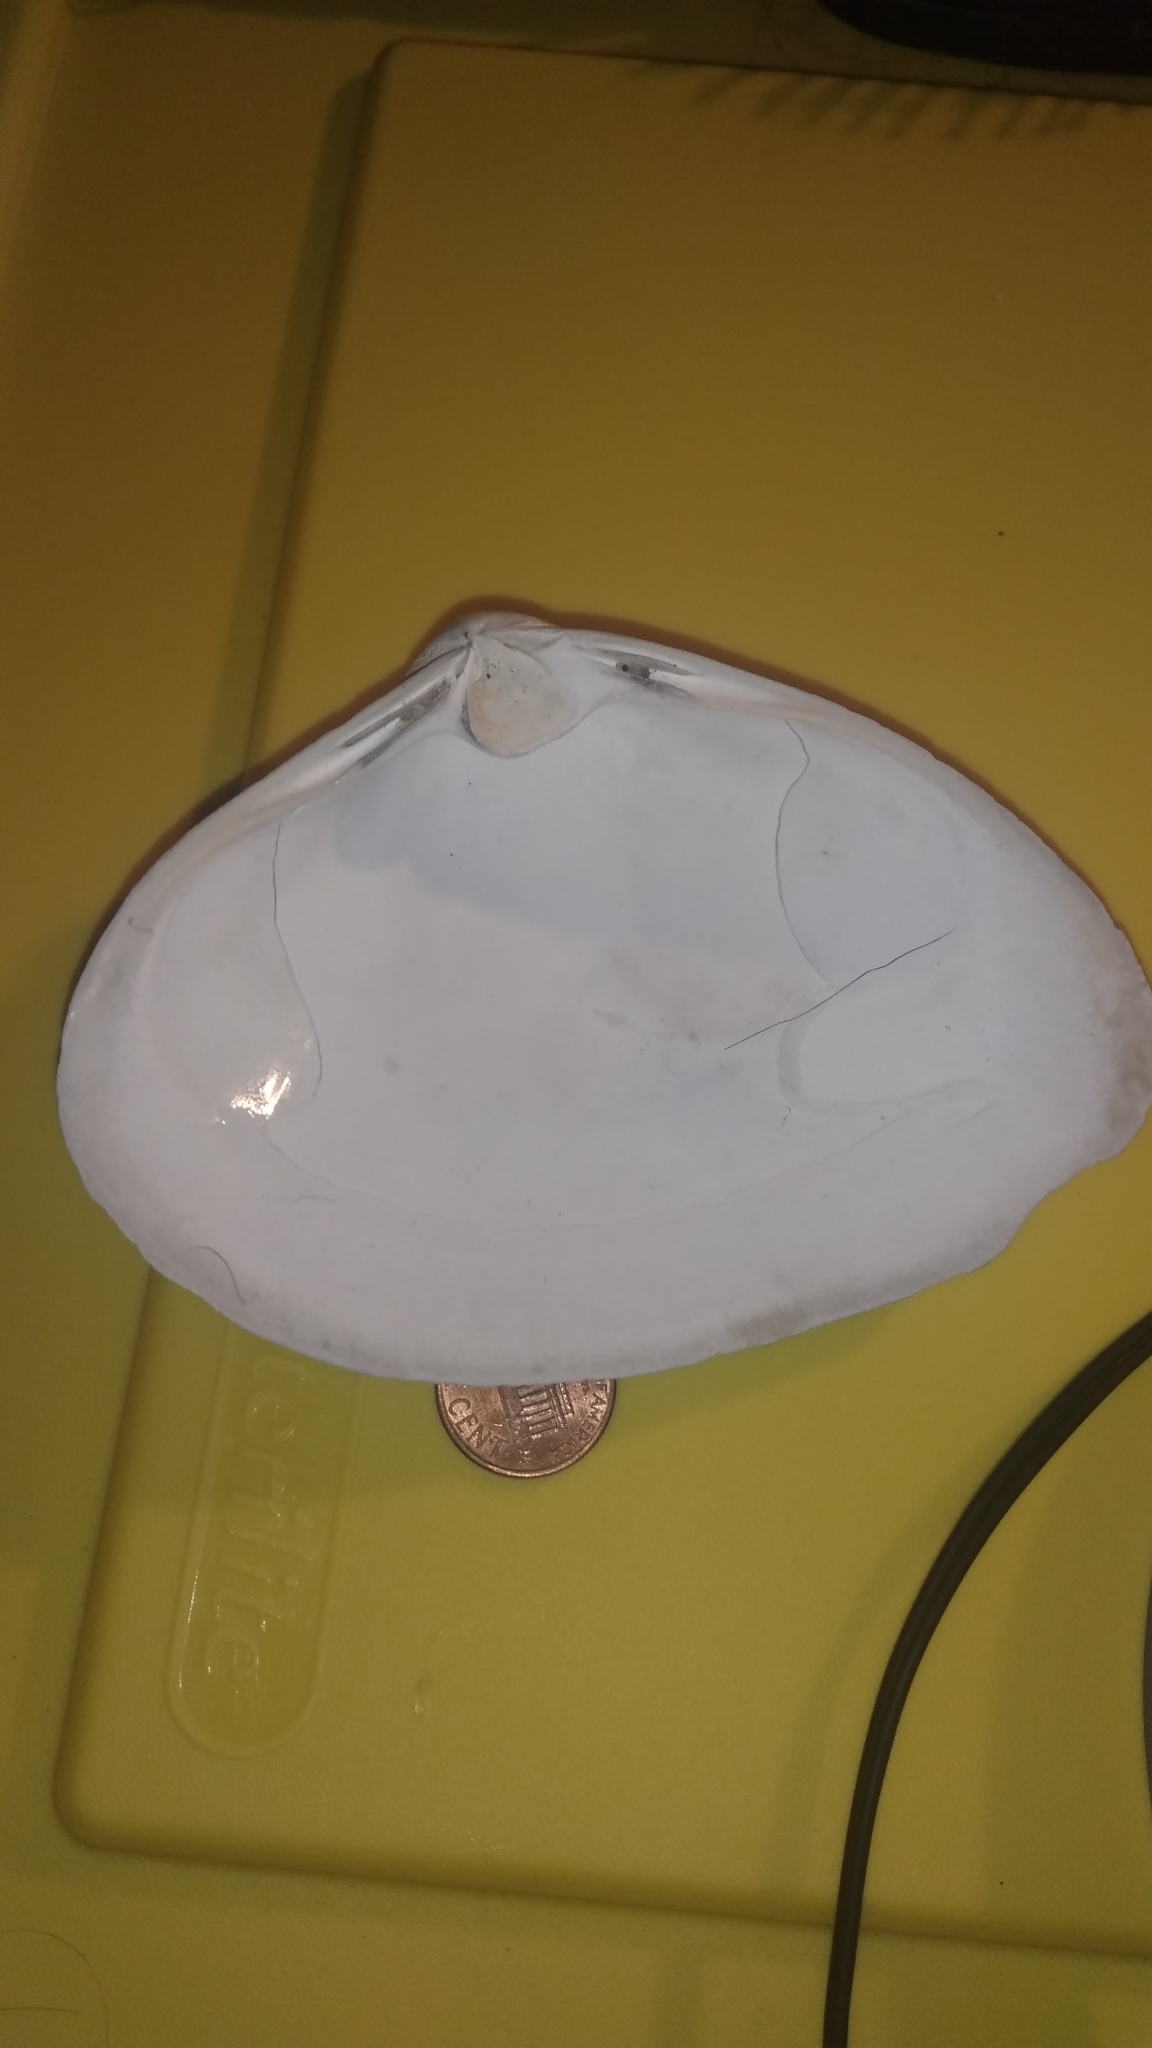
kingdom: Animalia
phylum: Mollusca
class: Bivalvia
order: Venerida
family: Mactridae
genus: Spisula
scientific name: Spisula solidissima
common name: Atlantic surf clam
